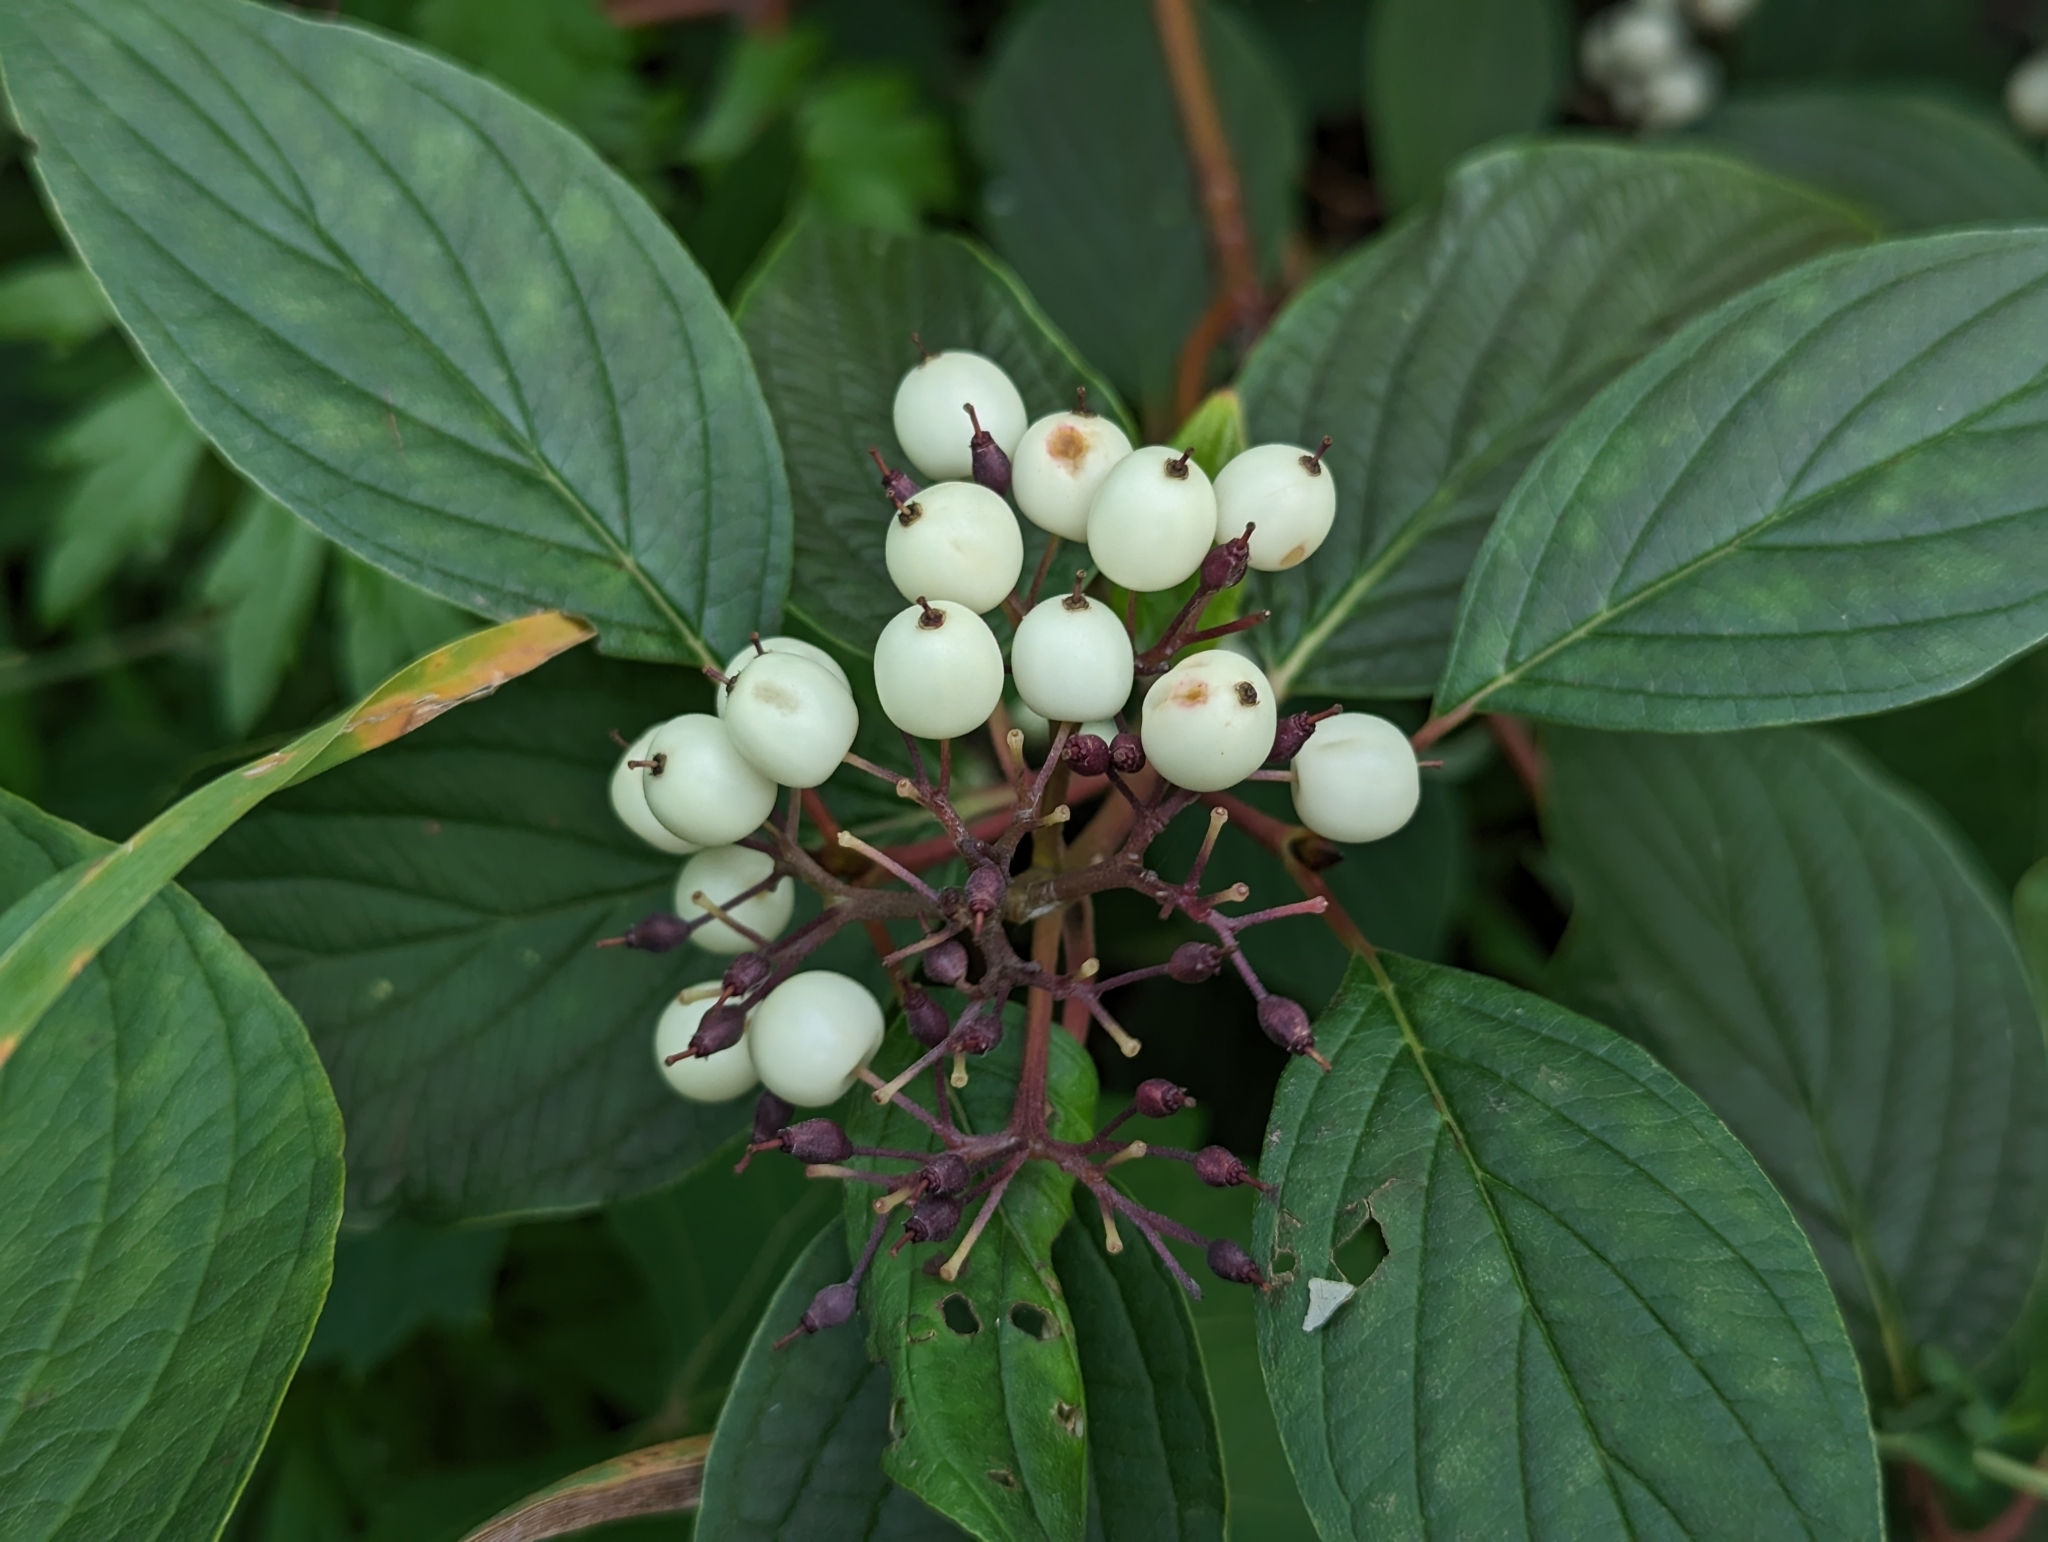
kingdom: Plantae
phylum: Tracheophyta
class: Magnoliopsida
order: Cornales
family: Cornaceae
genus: Cornus
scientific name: Cornus sericea
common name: Red-osier dogwood
